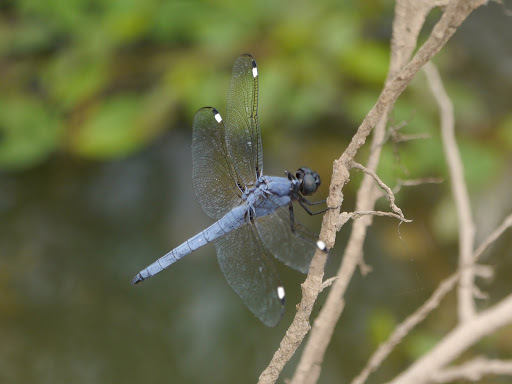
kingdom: Animalia
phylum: Arthropoda
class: Insecta
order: Odonata
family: Libellulidae
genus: Libellula
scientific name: Libellula cyanea
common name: Spangled skimmer
